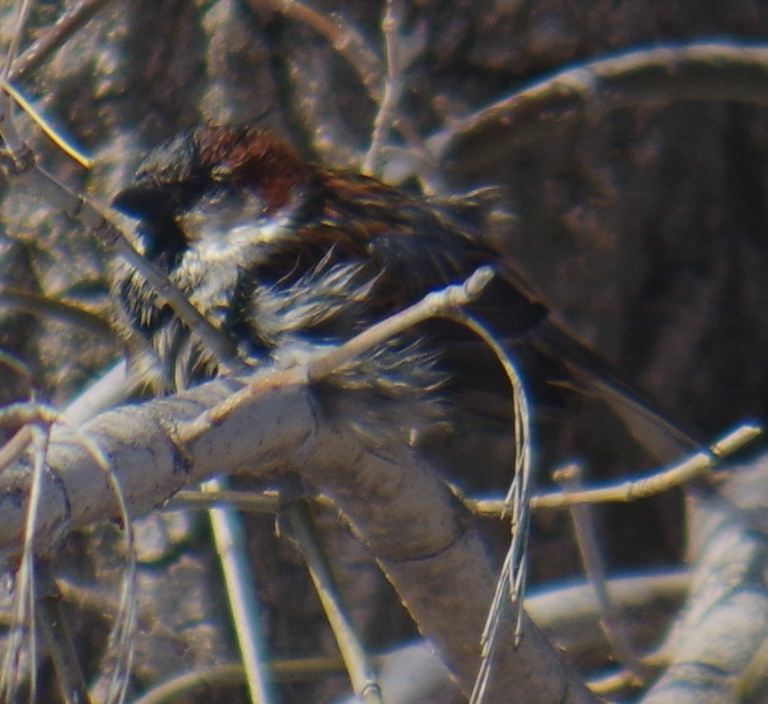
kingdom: Animalia
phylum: Chordata
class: Aves
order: Passeriformes
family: Passeridae
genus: Passer
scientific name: Passer domesticus
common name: House sparrow
